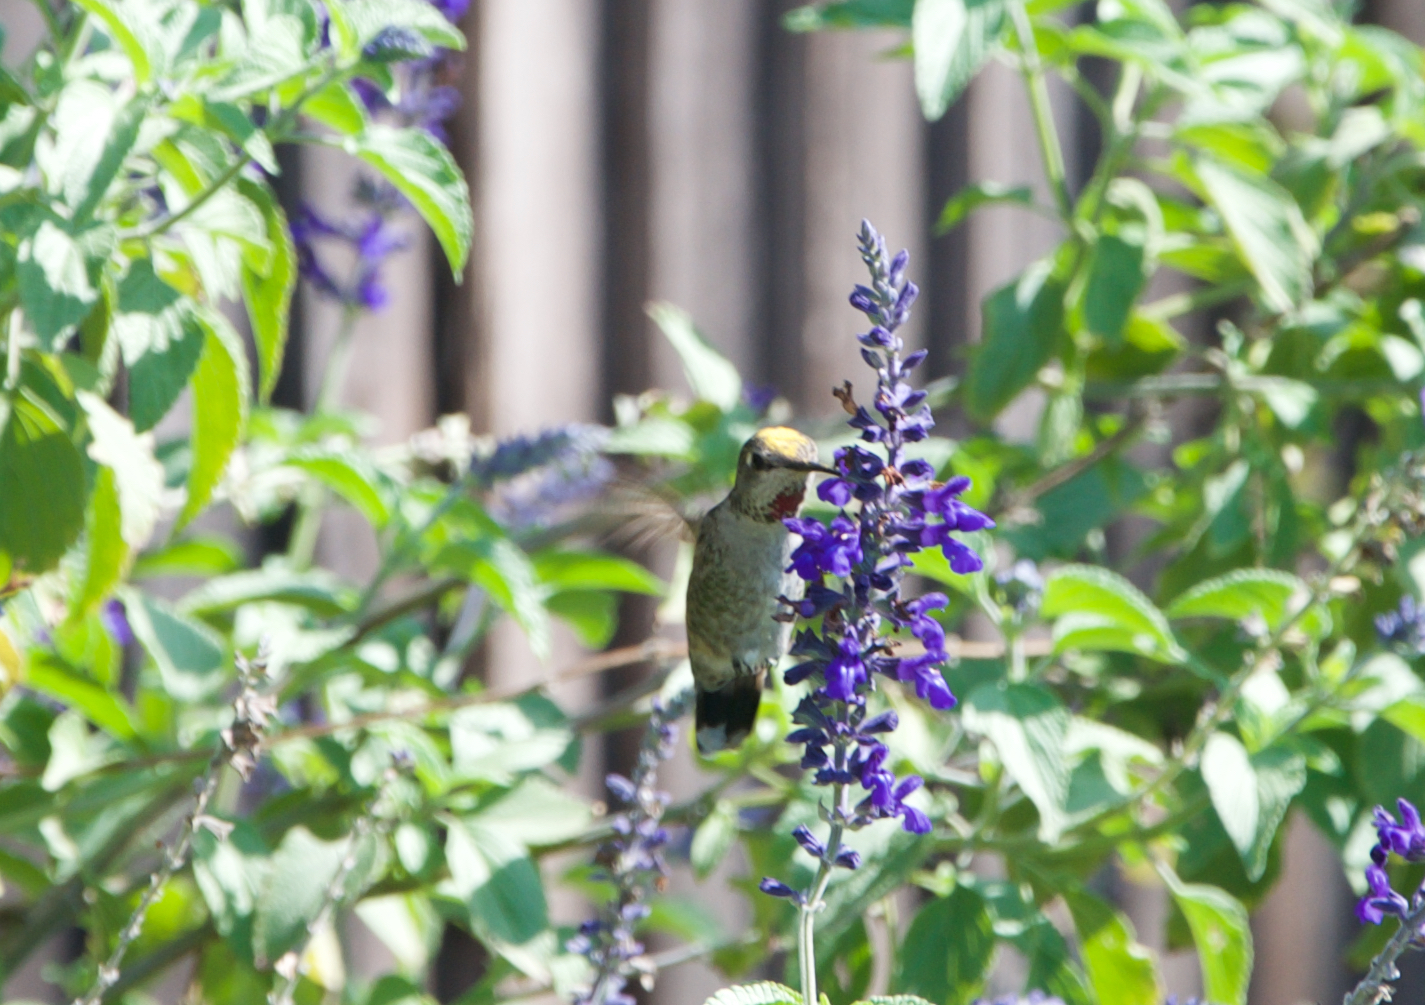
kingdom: Animalia
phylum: Chordata
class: Aves
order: Apodiformes
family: Trochilidae
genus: Calypte
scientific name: Calypte anna
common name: Anna's hummingbird
